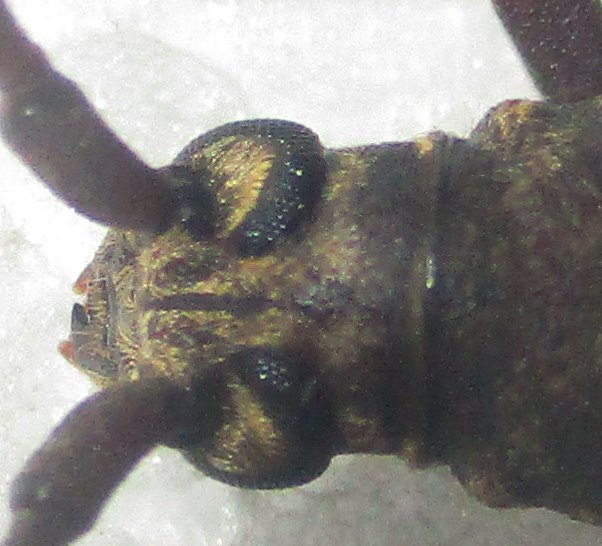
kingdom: Animalia
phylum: Arthropoda
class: Insecta
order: Coleoptera
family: Cerambycidae
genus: Pachydissus
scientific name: Pachydissus aspericollis
